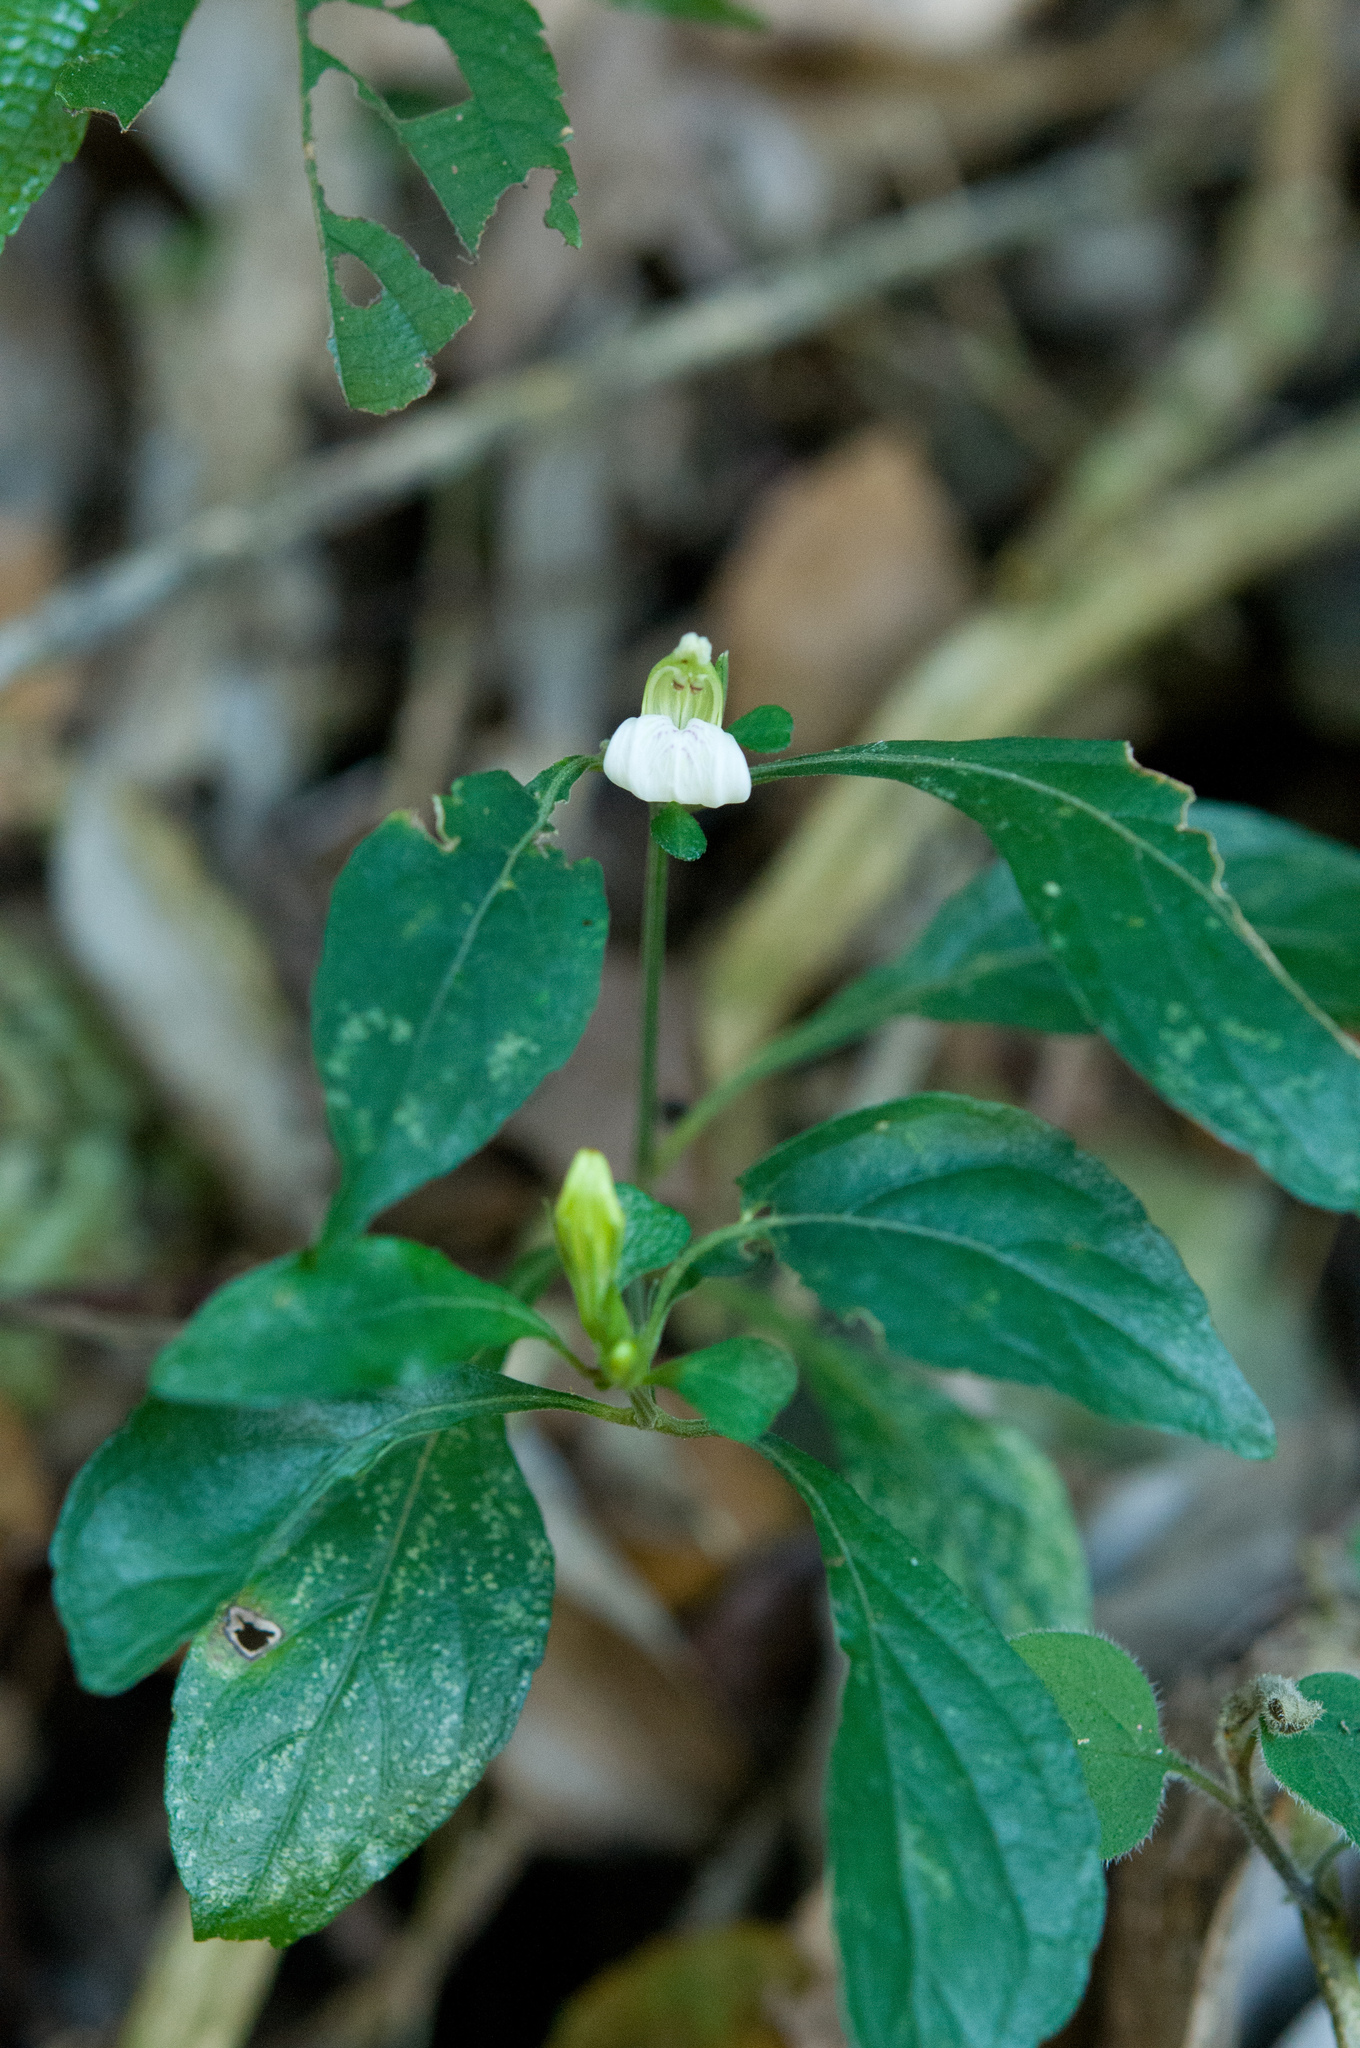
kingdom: Plantae
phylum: Tracheophyta
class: Magnoliopsida
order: Lamiales
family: Acanthaceae
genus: Justicia
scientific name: Justicia quadrifaria
